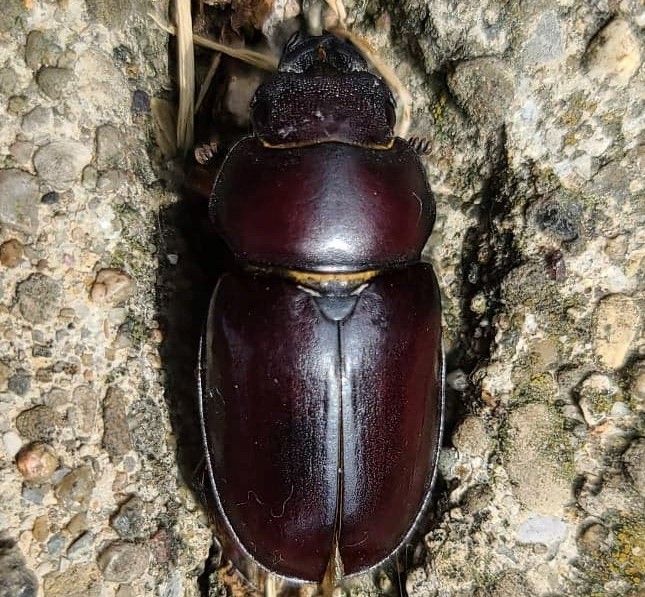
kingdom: Animalia
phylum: Arthropoda
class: Insecta
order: Coleoptera
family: Lucanidae
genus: Lucanus
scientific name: Lucanus capreolus
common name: Stag beetle
